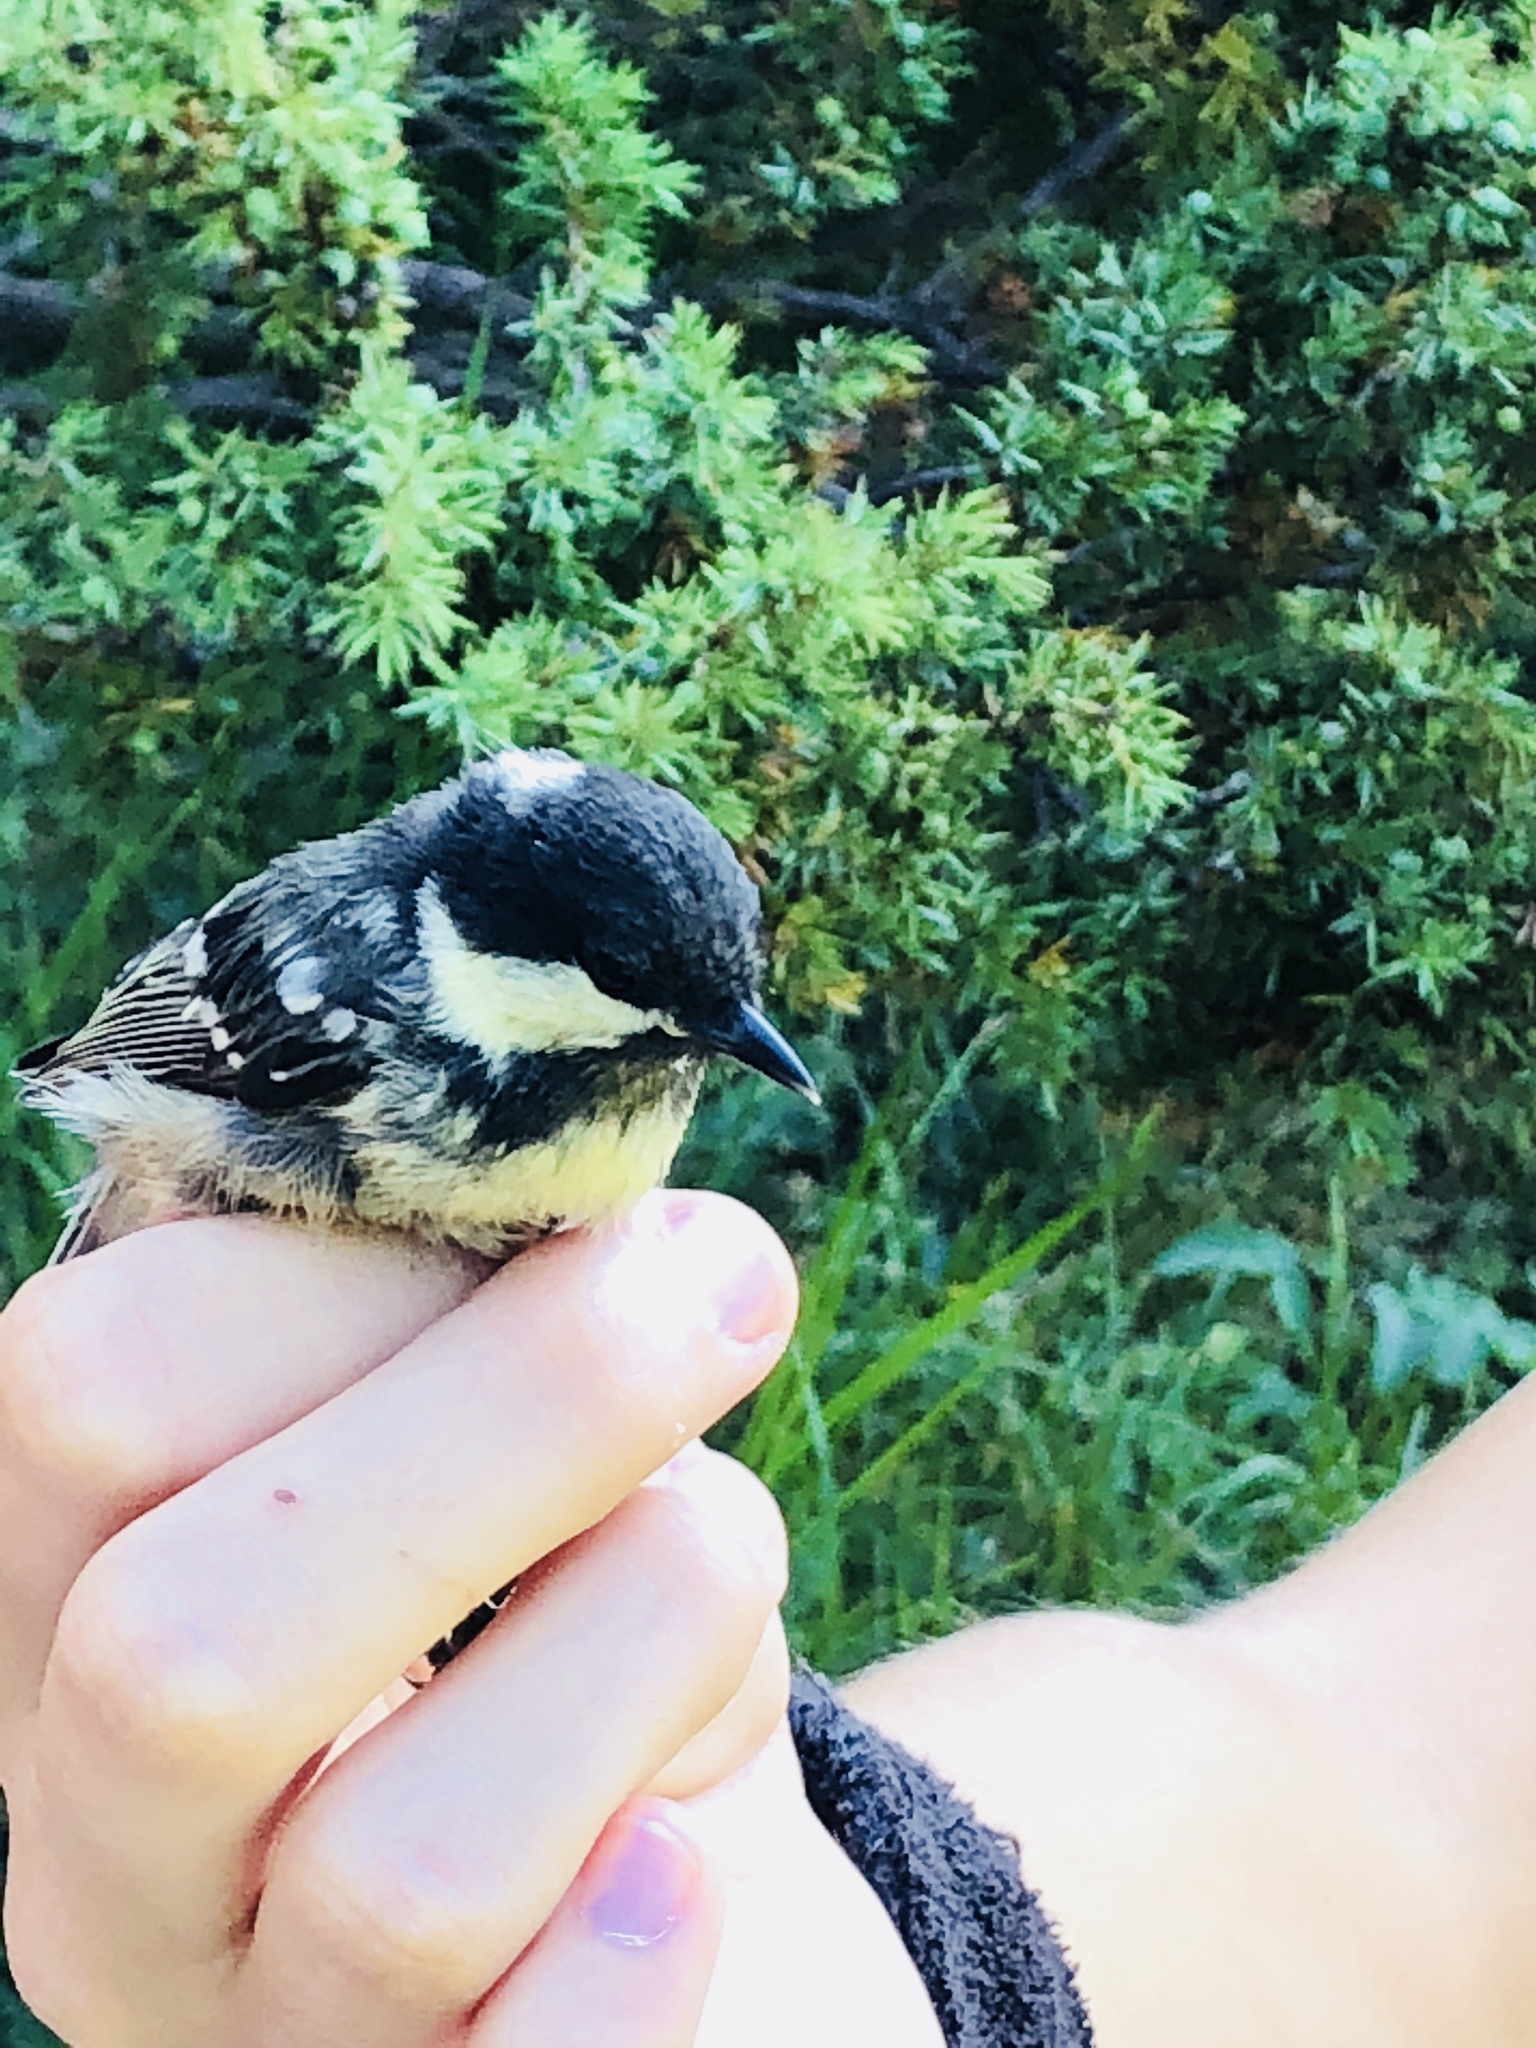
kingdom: Animalia
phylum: Chordata
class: Aves
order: Passeriformes
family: Paridae
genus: Periparus
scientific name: Periparus ater
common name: Coal tit
